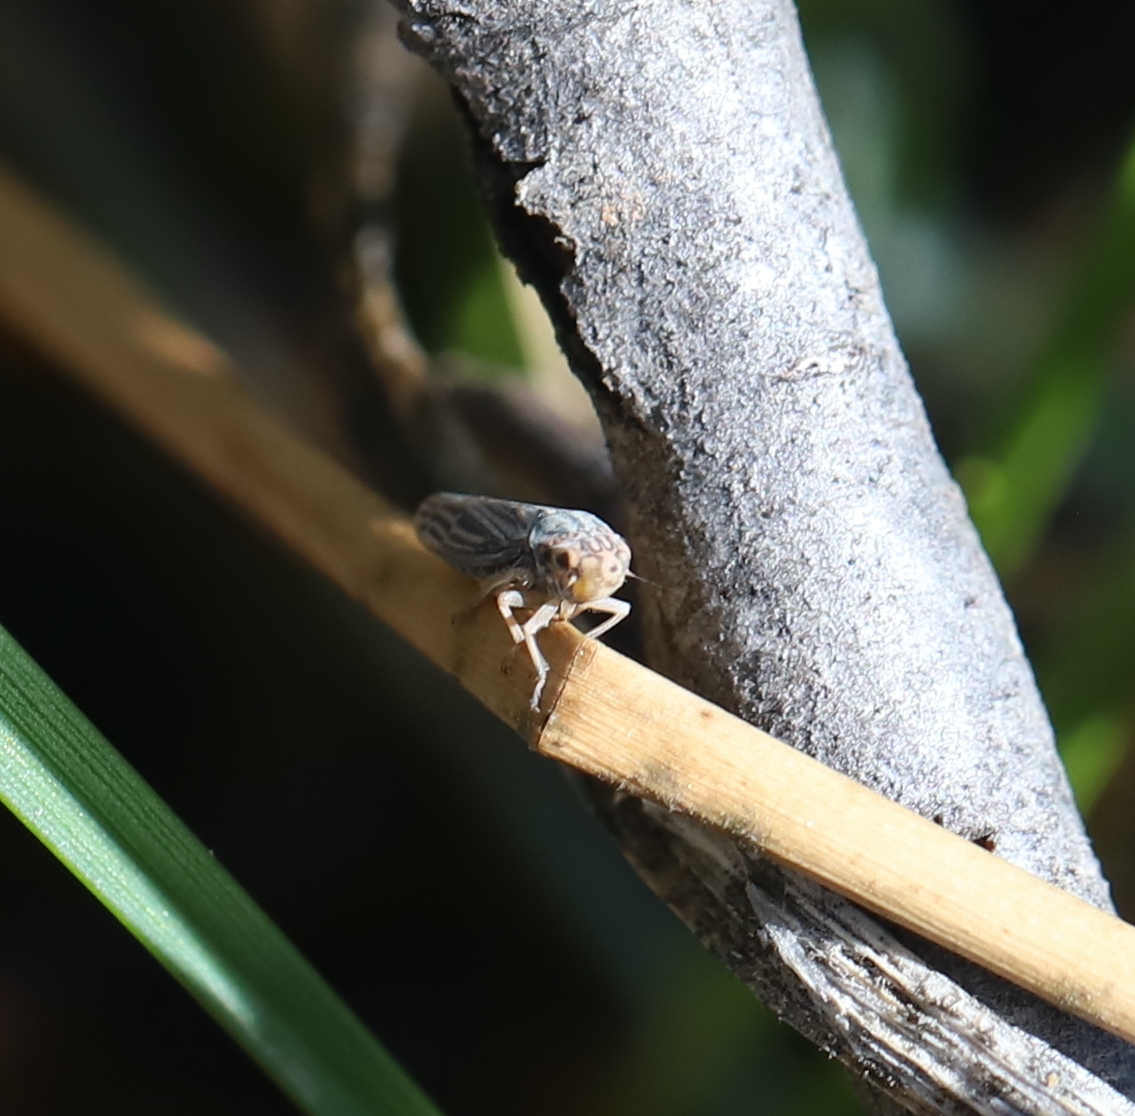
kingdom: Animalia
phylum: Arthropoda
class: Insecta
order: Hemiptera
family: Cicadellidae
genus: Neokolla
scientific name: Neokolla hieroglyphica
